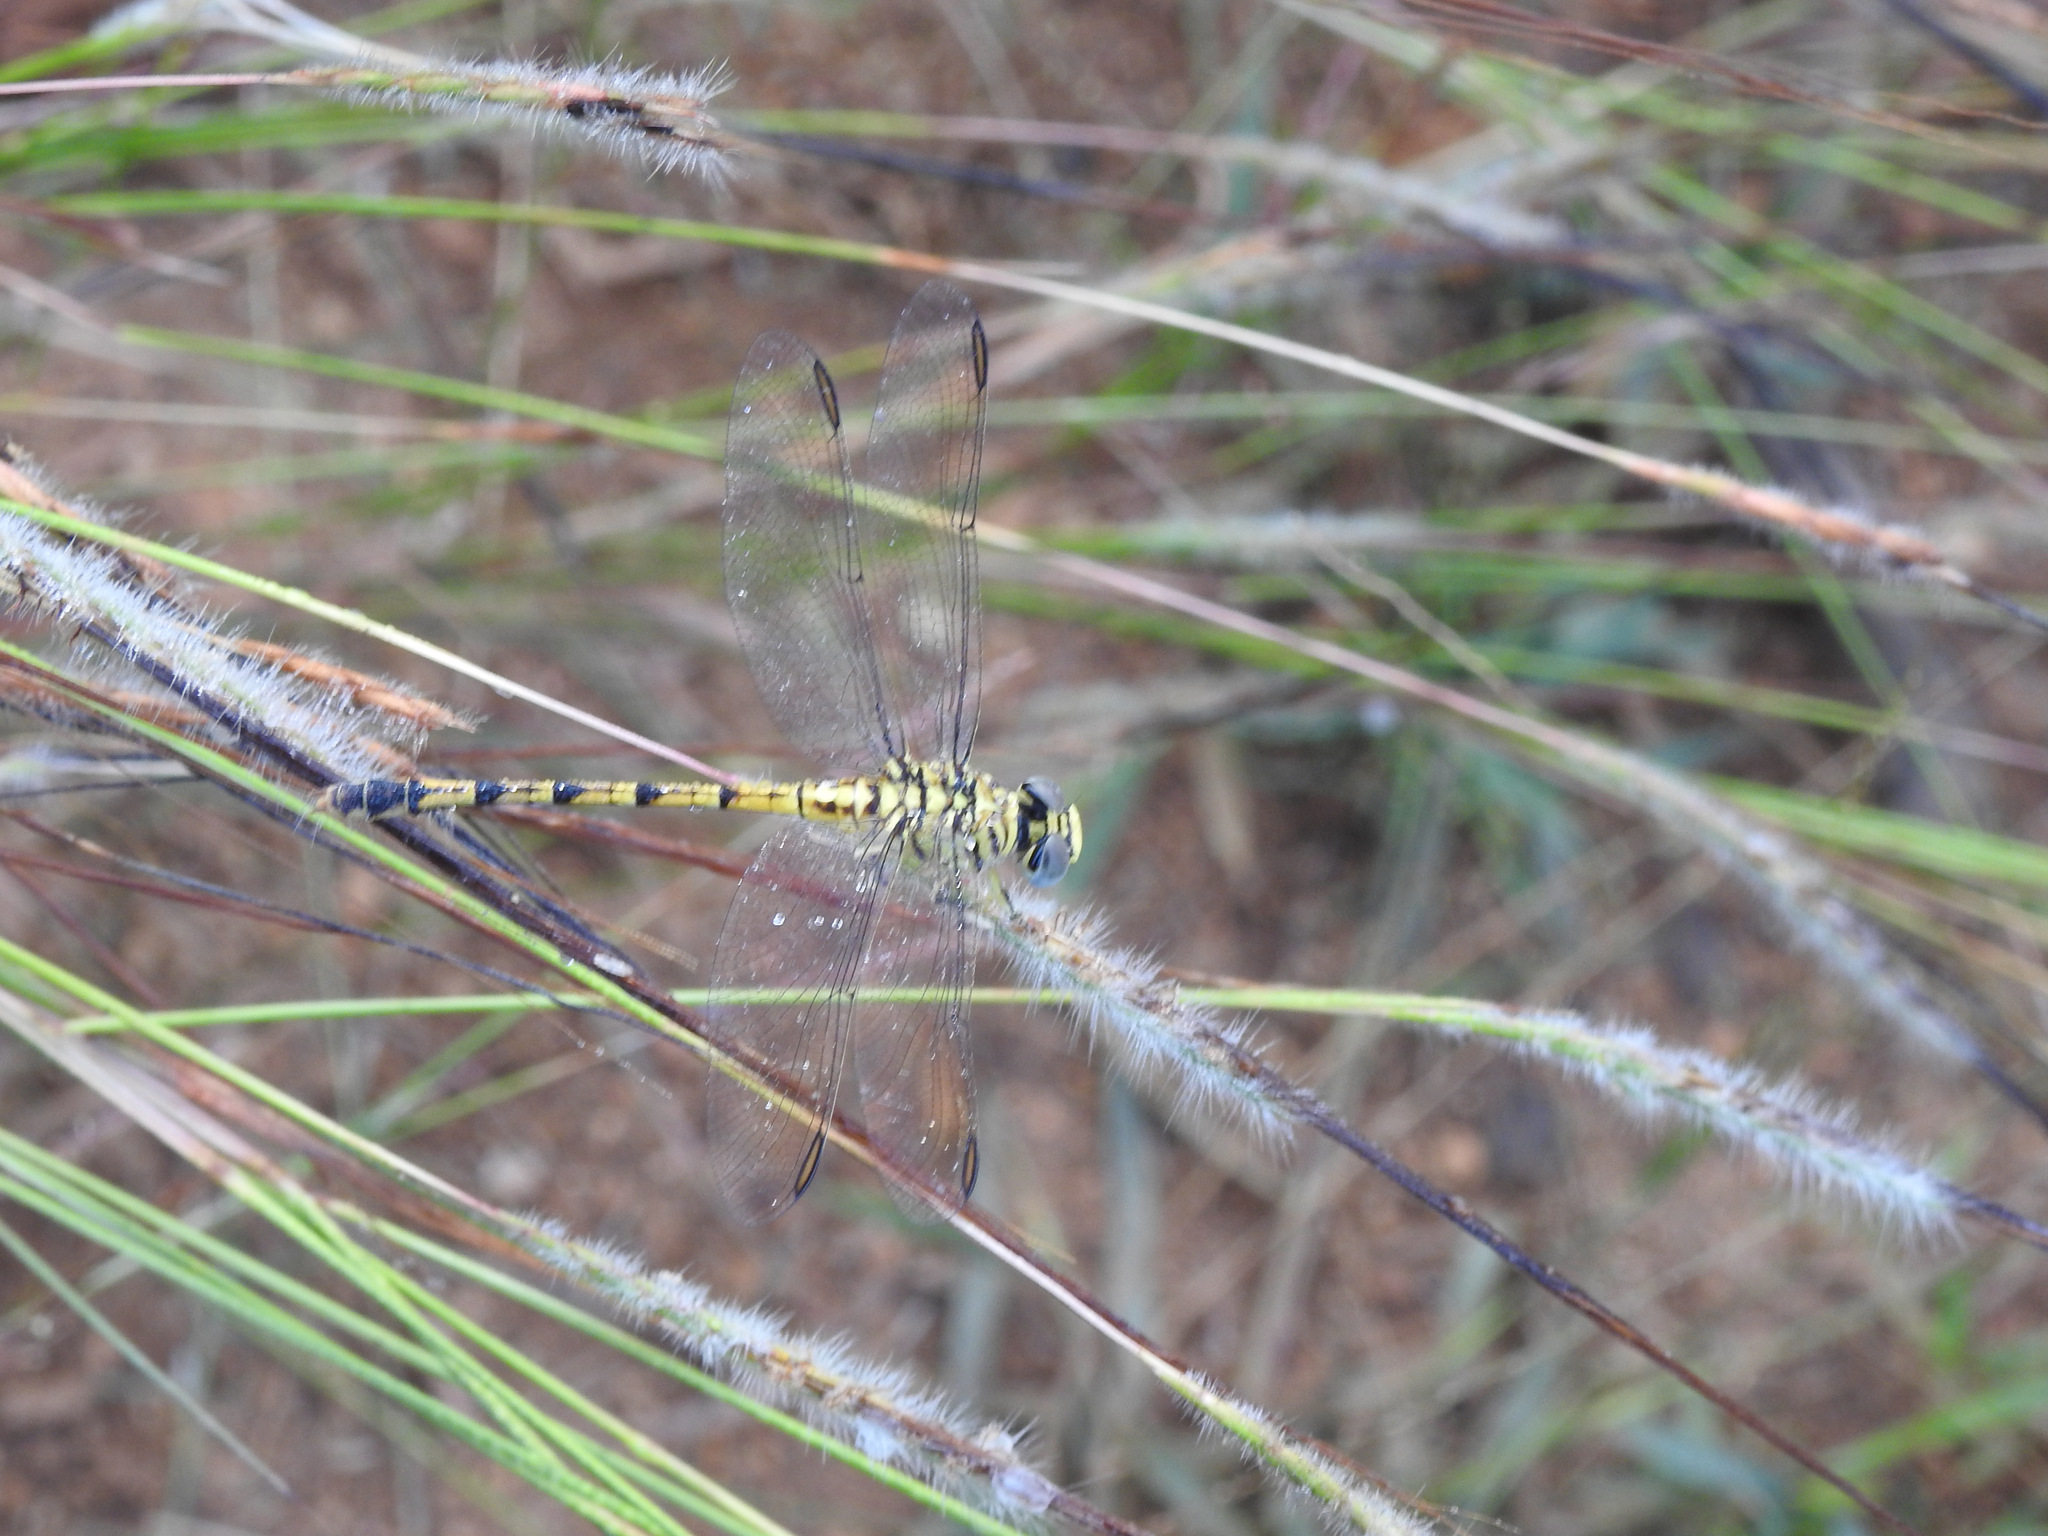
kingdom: Animalia
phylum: Arthropoda
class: Insecta
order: Odonata
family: Gomphidae
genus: Paragomphus
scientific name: Paragomphus lineatus
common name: Lined hooktail
